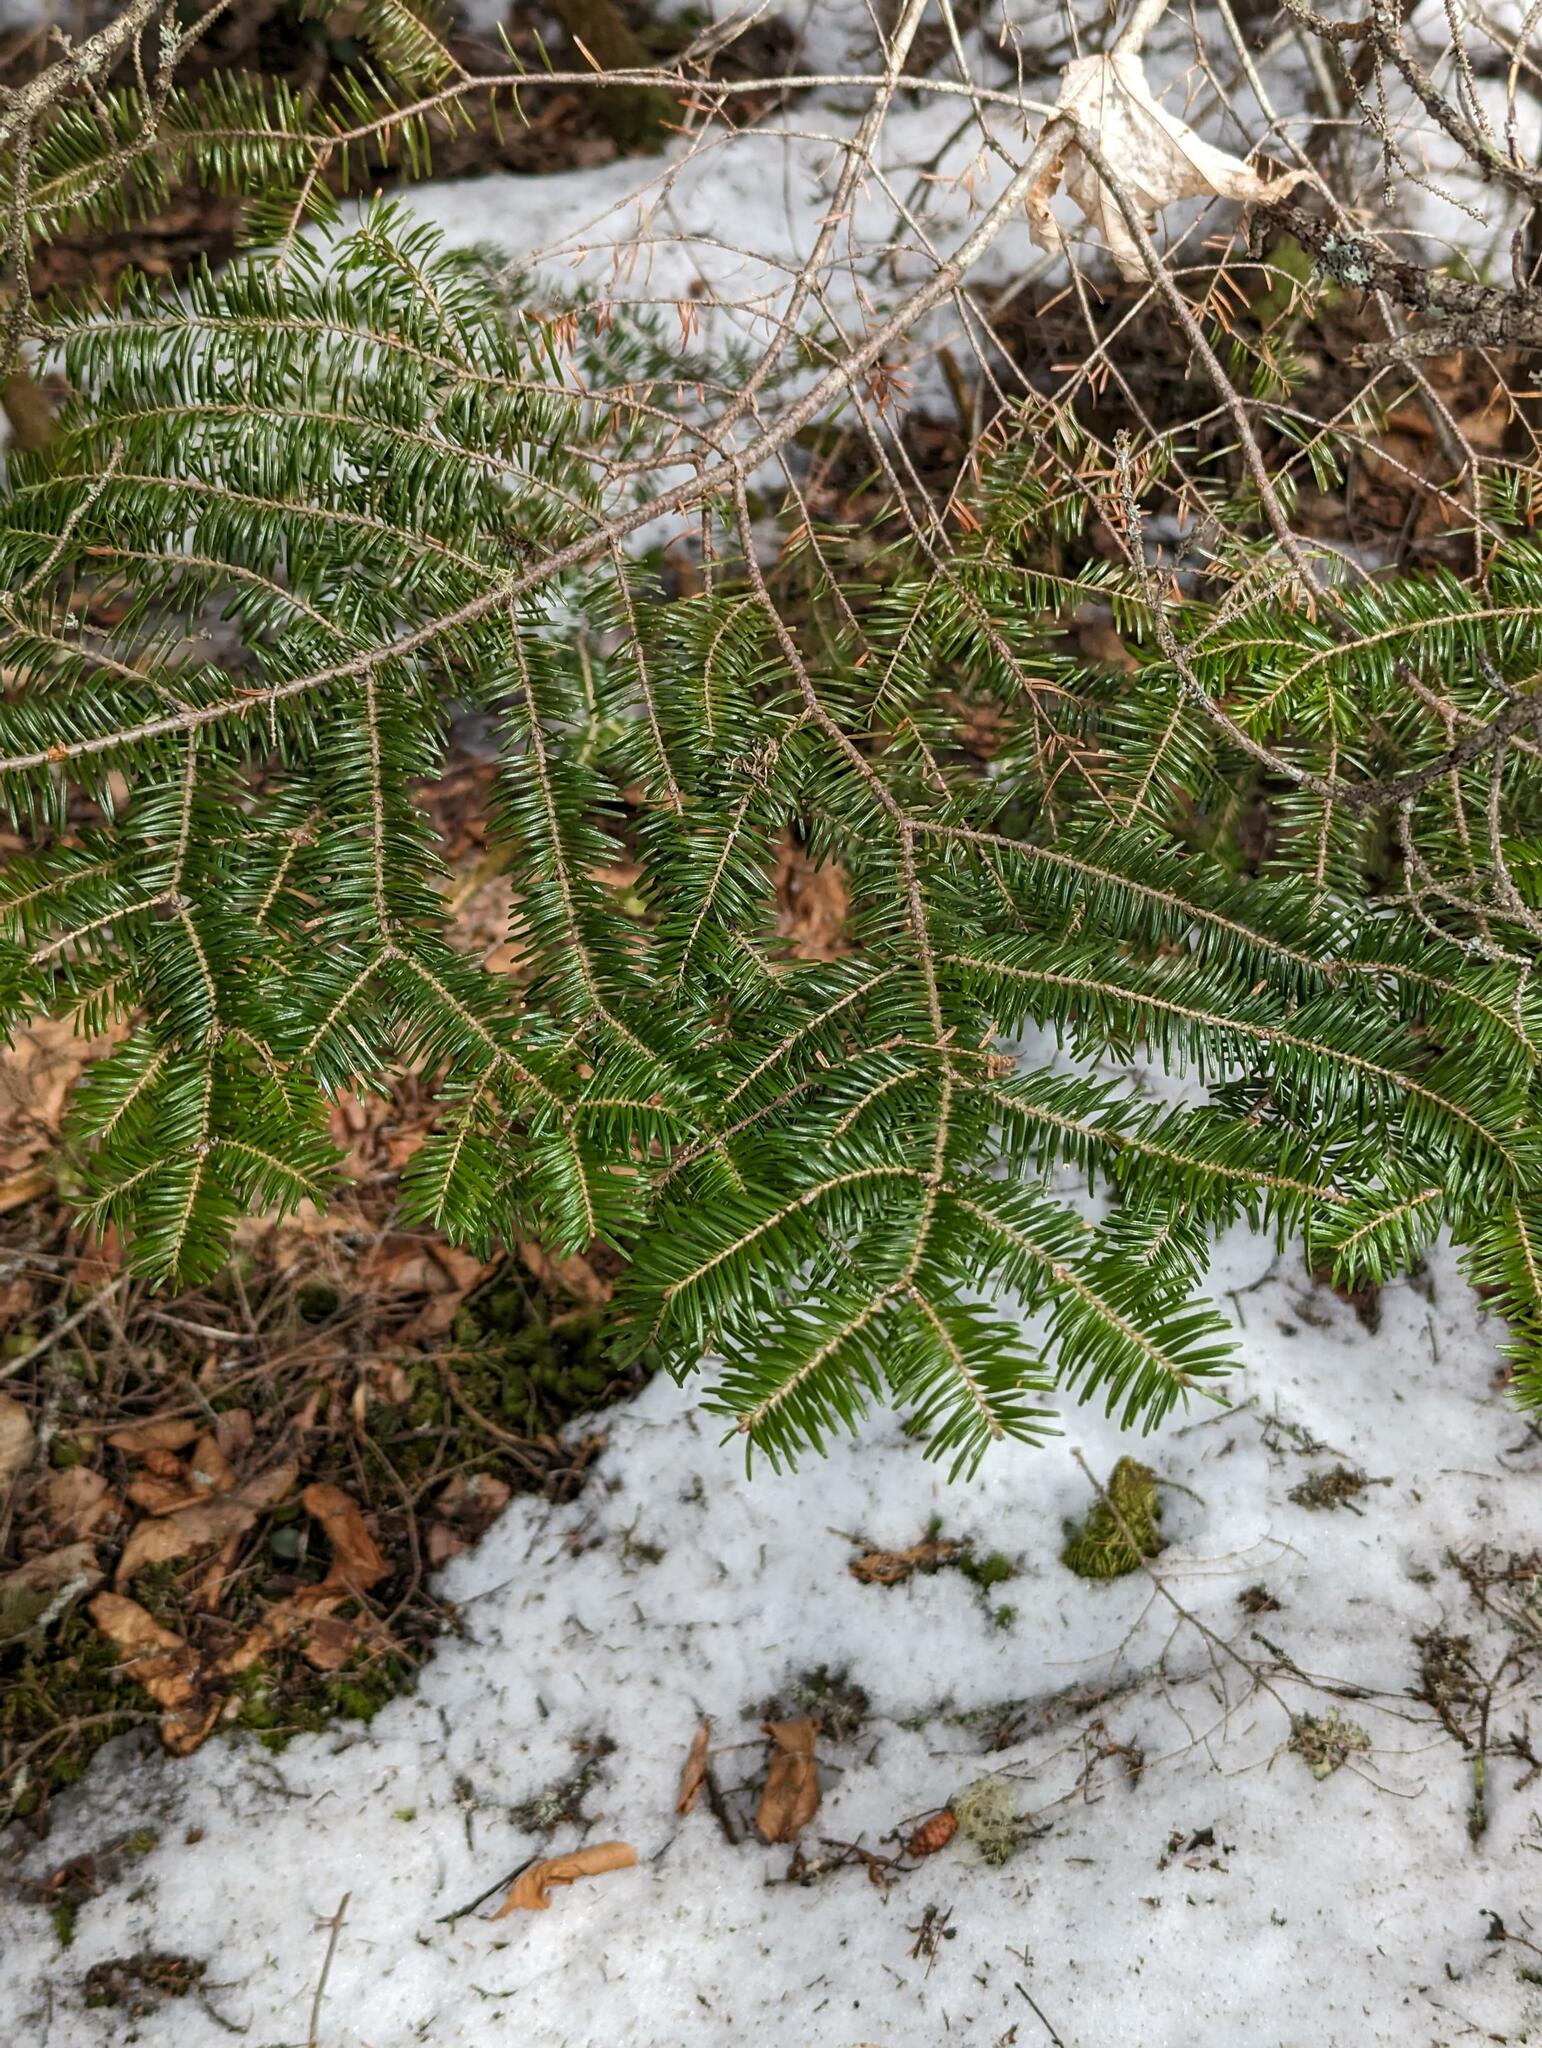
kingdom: Plantae
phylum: Tracheophyta
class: Pinopsida
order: Pinales
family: Pinaceae
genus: Abies
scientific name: Abies balsamea
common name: Balsam fir
